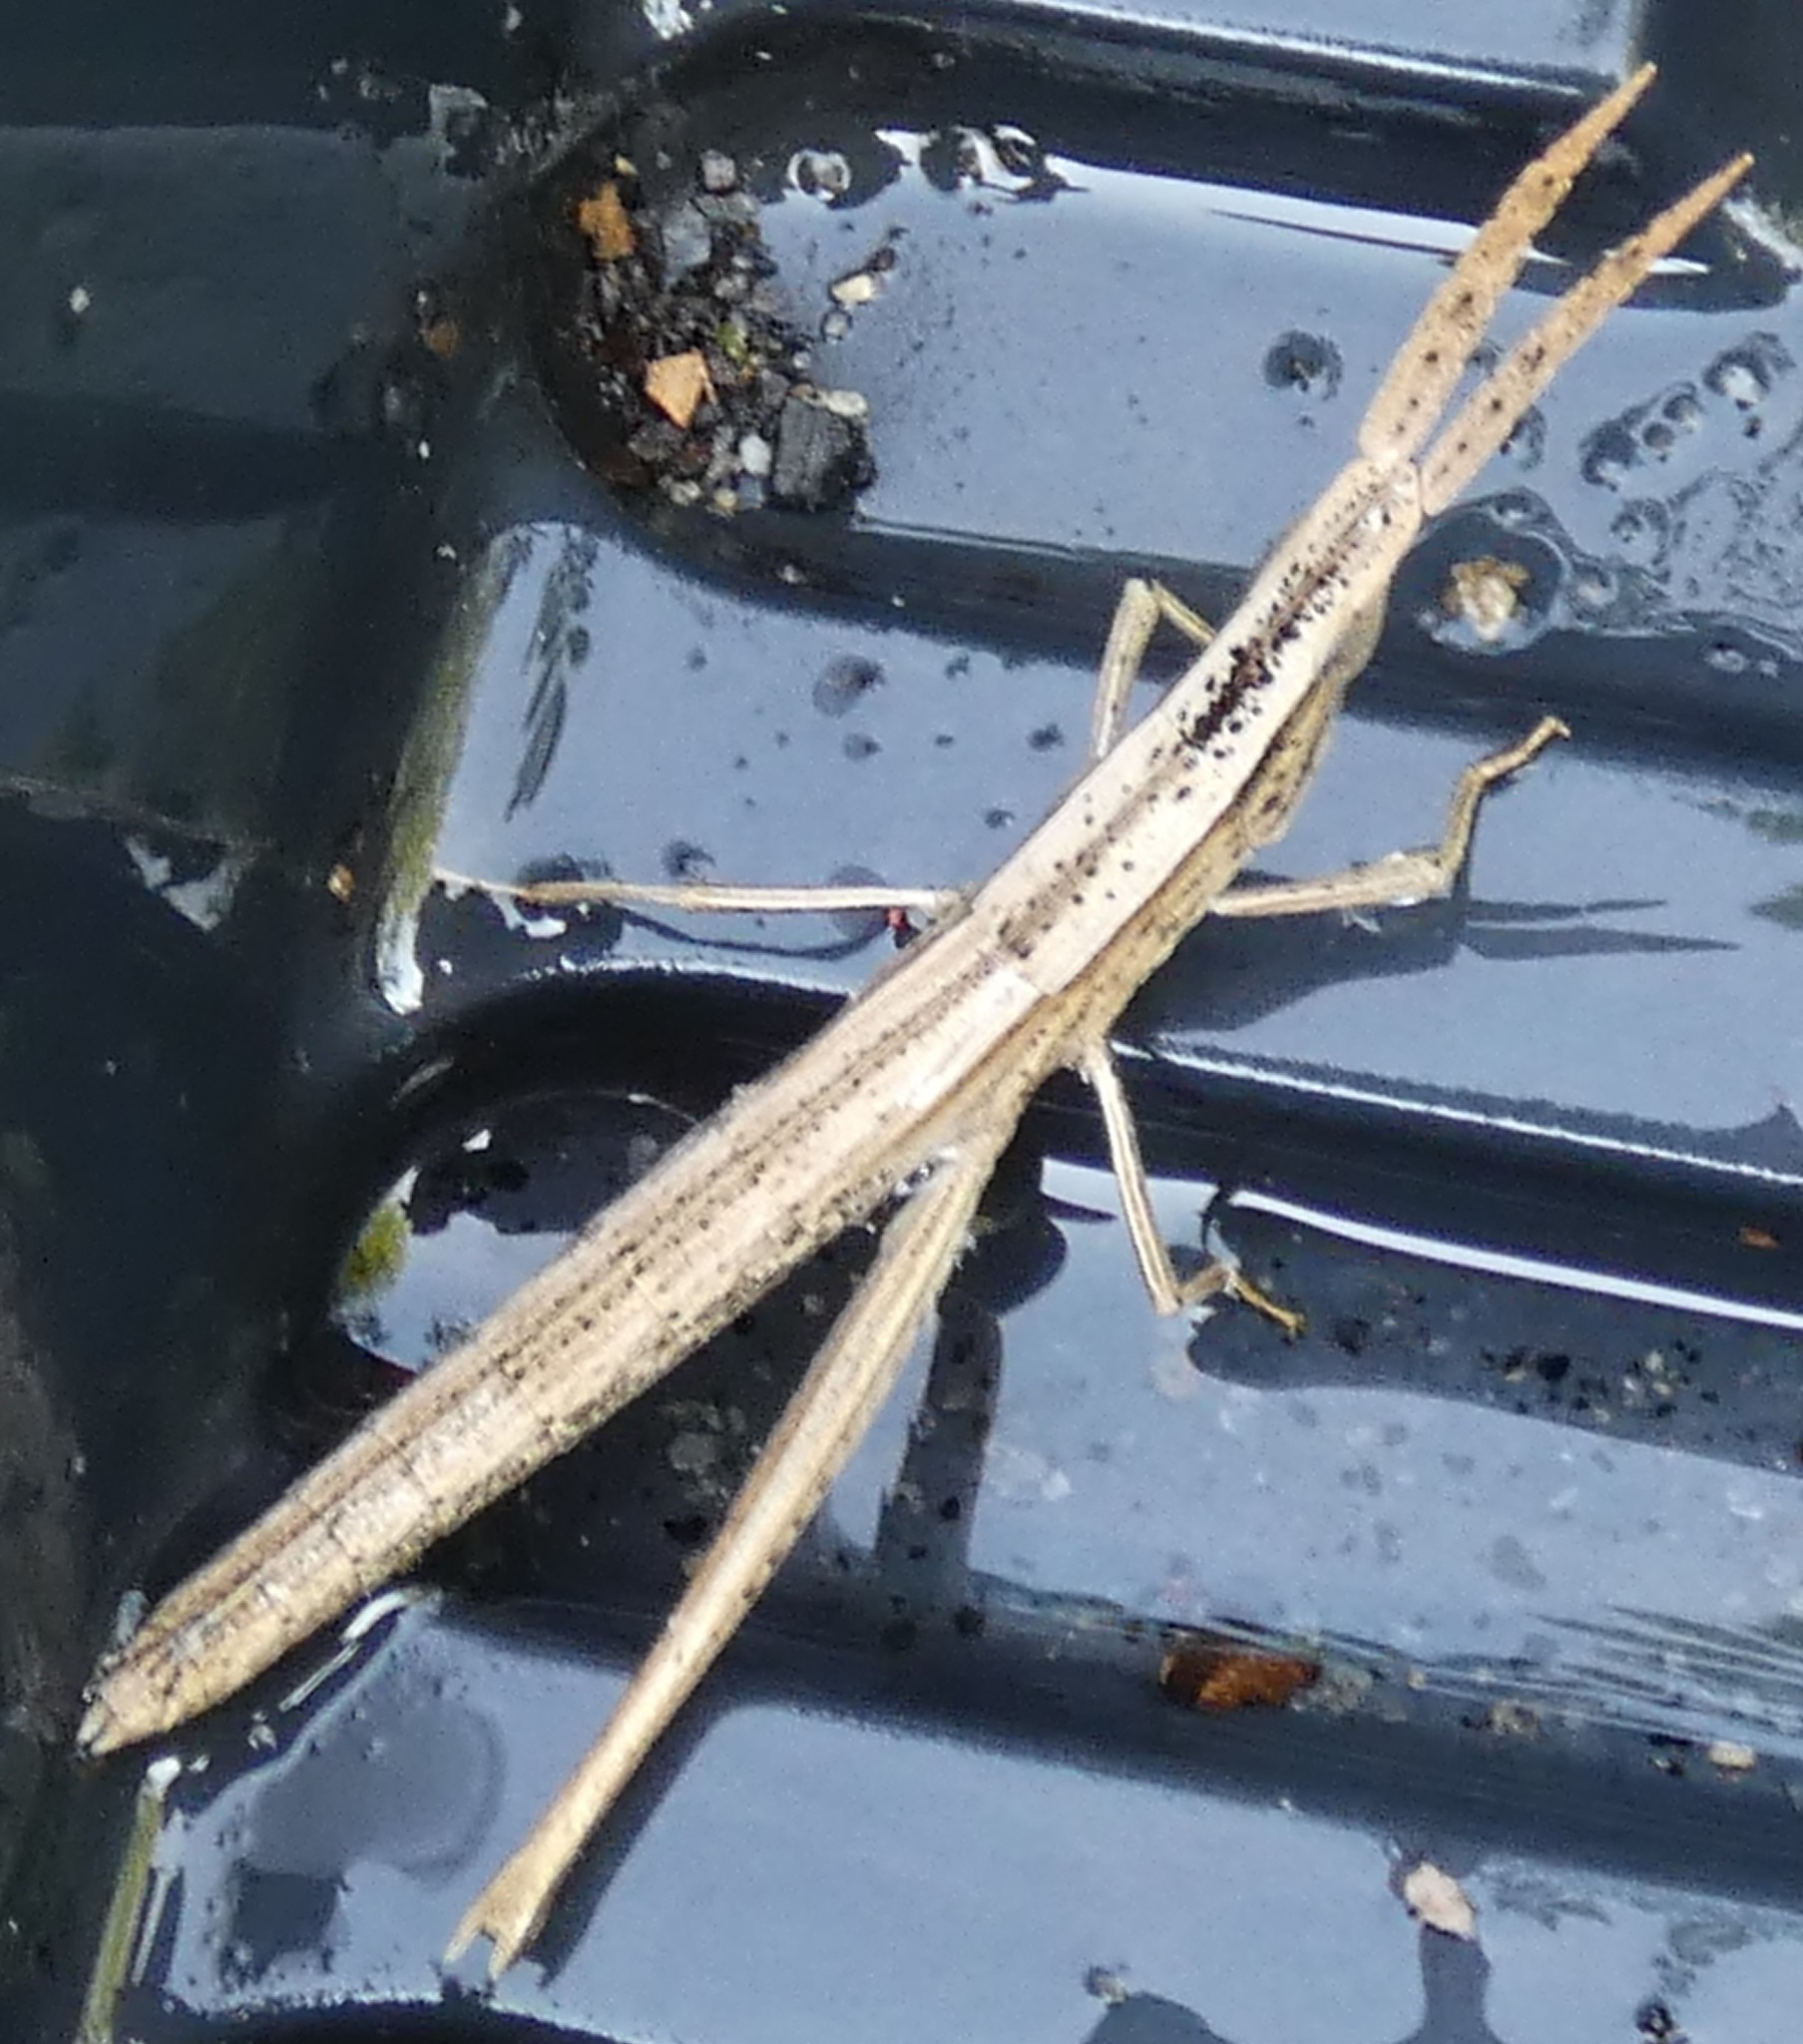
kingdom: Animalia
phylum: Arthropoda
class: Insecta
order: Orthoptera
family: Acrididae
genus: Achurum
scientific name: Achurum carinatum
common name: Long-headed toothpick grasshopper
